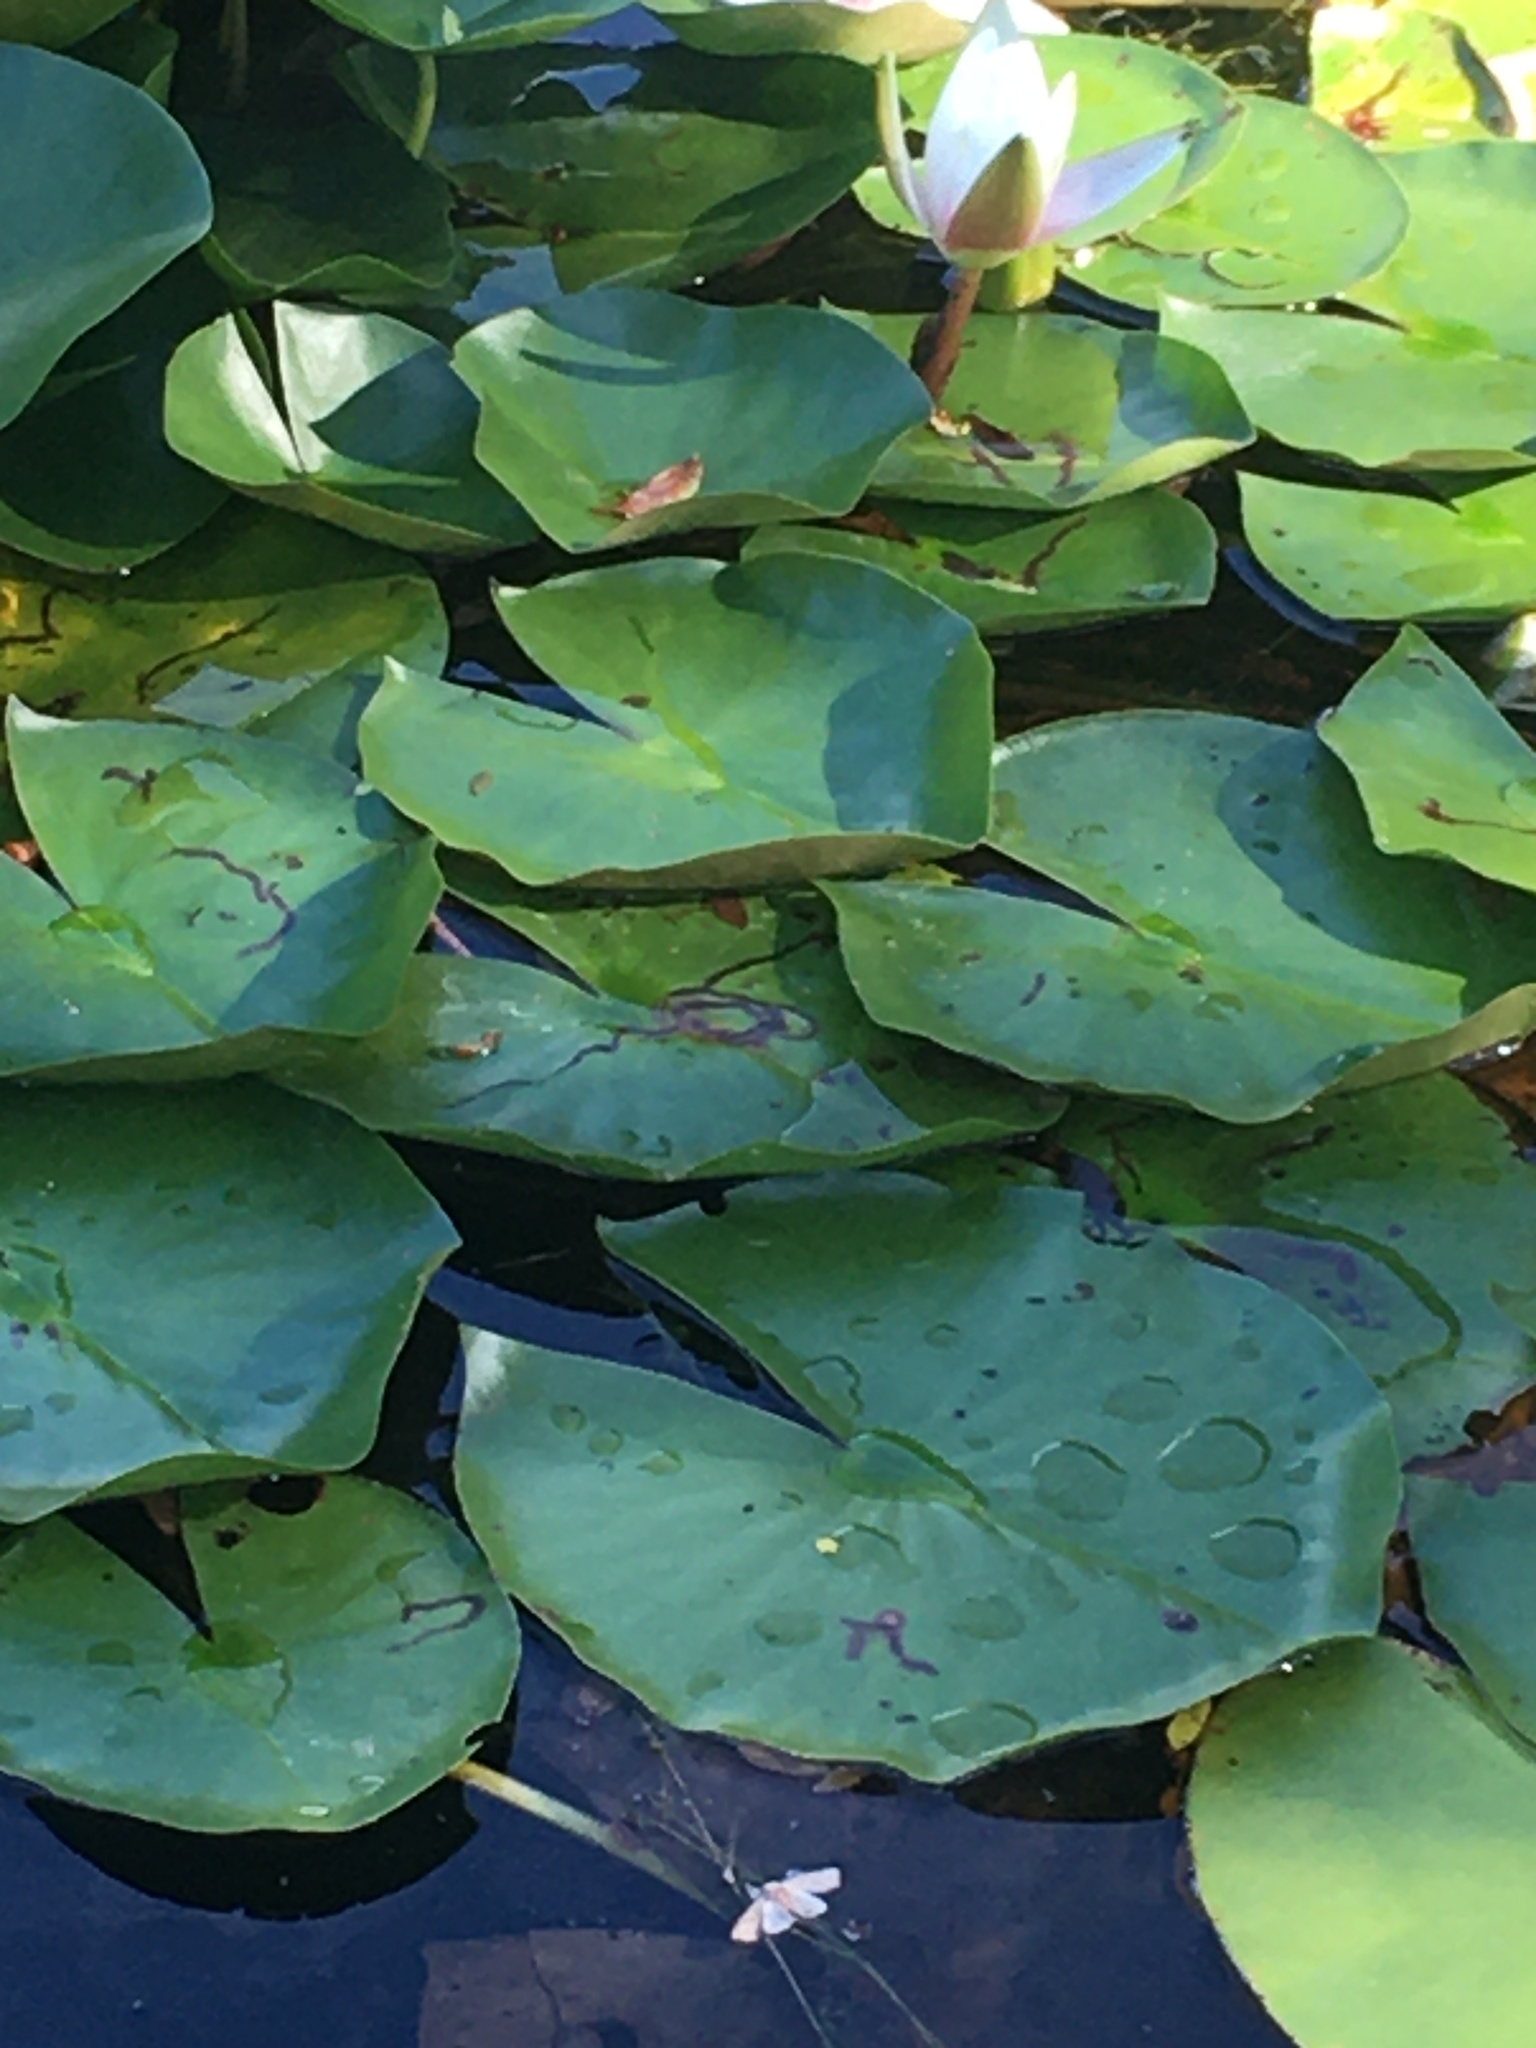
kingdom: Animalia
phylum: Arthropoda
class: Insecta
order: Diptera
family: Chironomidae
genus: Polypedilum
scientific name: Polypedilum braseniae
